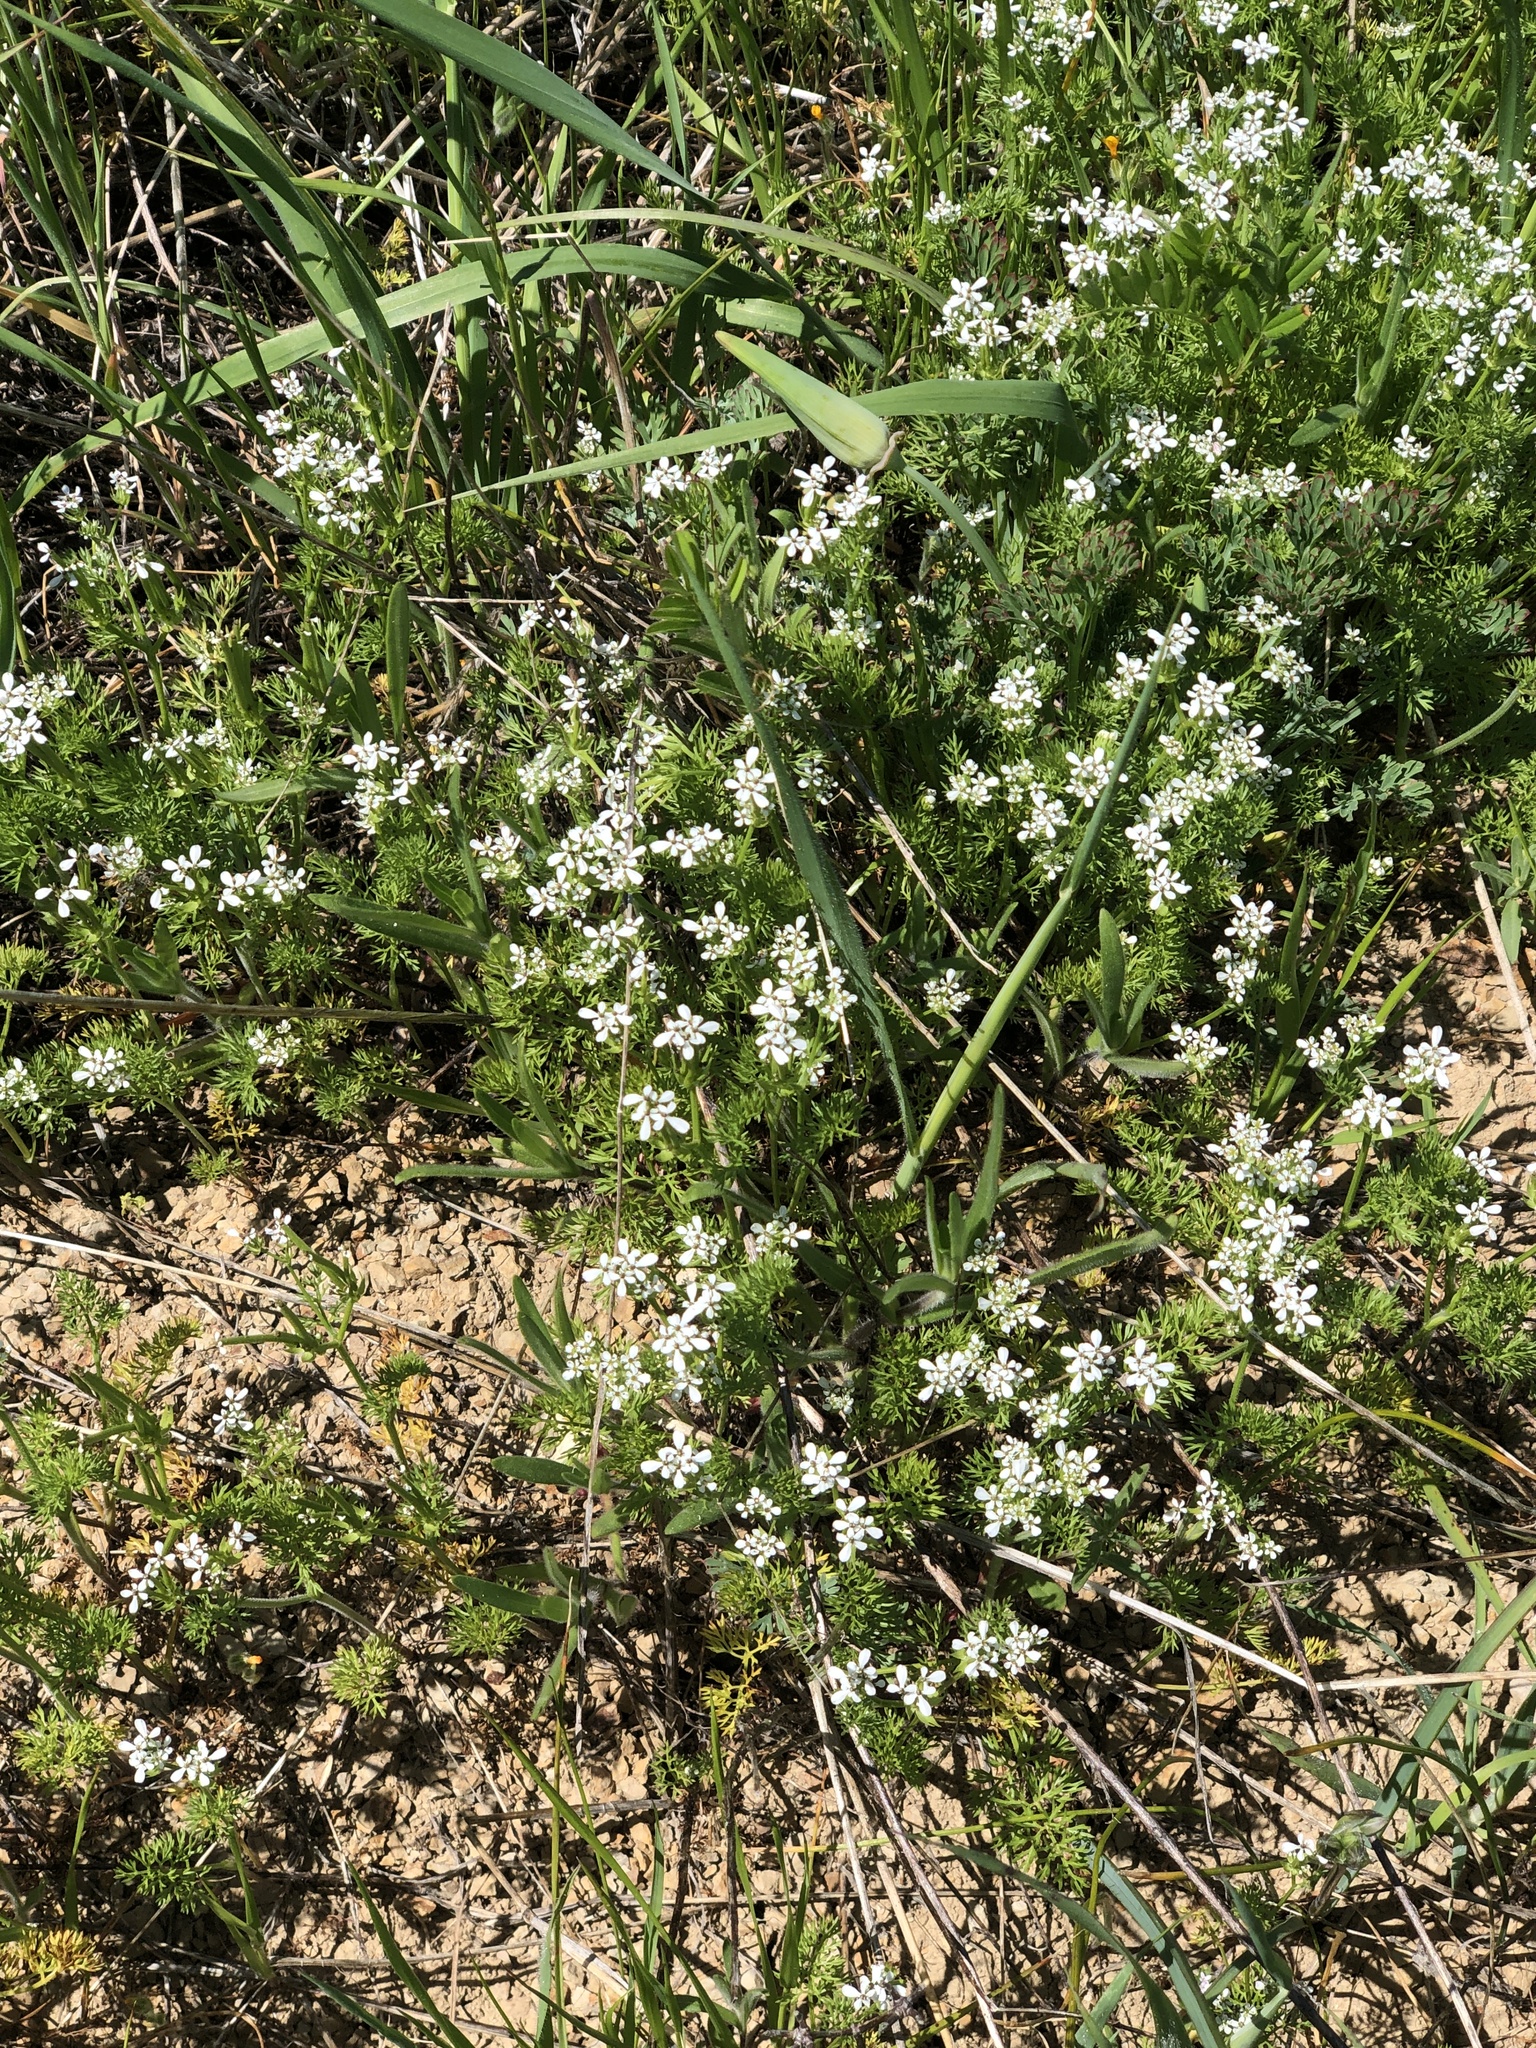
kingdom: Plantae
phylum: Tracheophyta
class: Magnoliopsida
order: Apiales
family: Apiaceae
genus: Scandix
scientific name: Scandix pecten-veneris
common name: Shepherd's-needle
